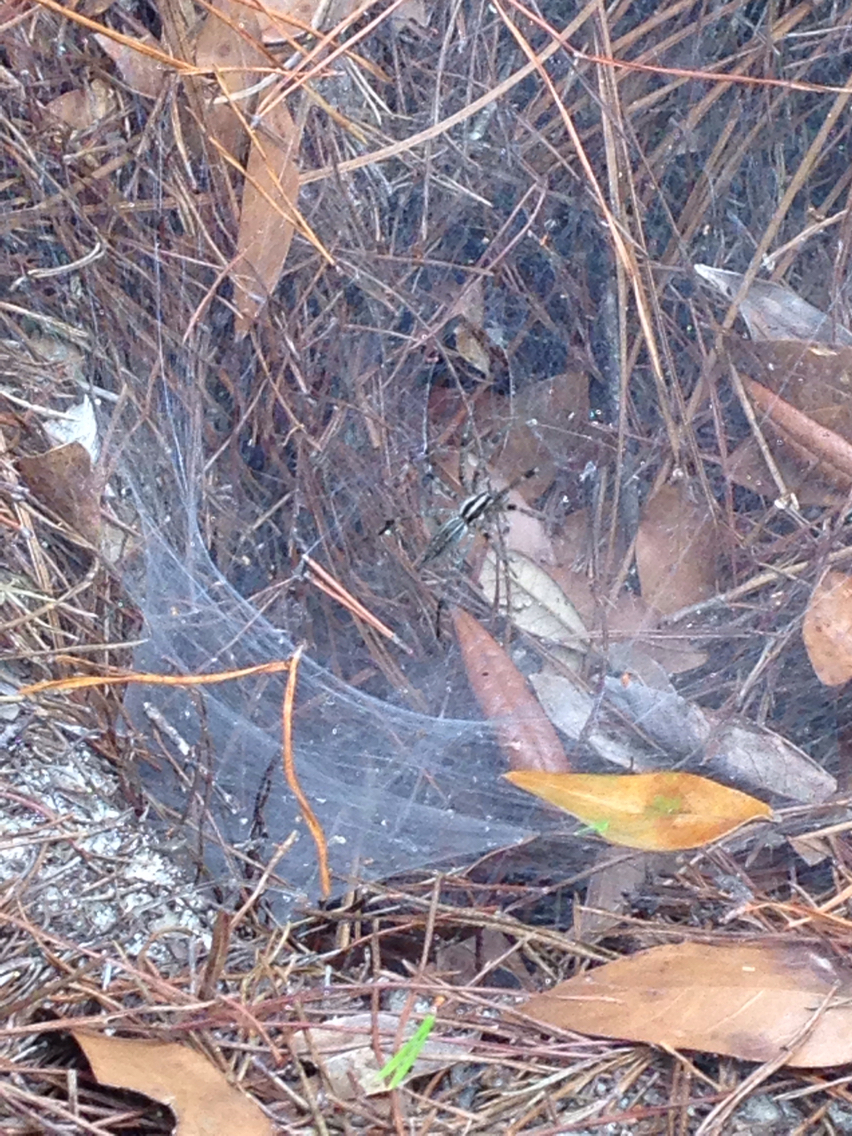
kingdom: Animalia
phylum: Arthropoda
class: Arachnida
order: Araneae
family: Agelenidae
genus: Agelenopsis
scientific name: Agelenopsis
